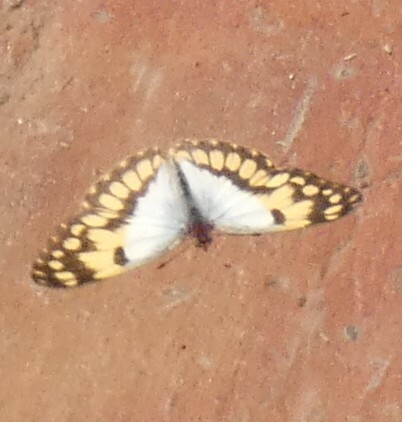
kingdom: Animalia
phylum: Arthropoda
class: Insecta
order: Lepidoptera
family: Pieridae
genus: Colotis
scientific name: Colotis vesta
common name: Veined golden arab
